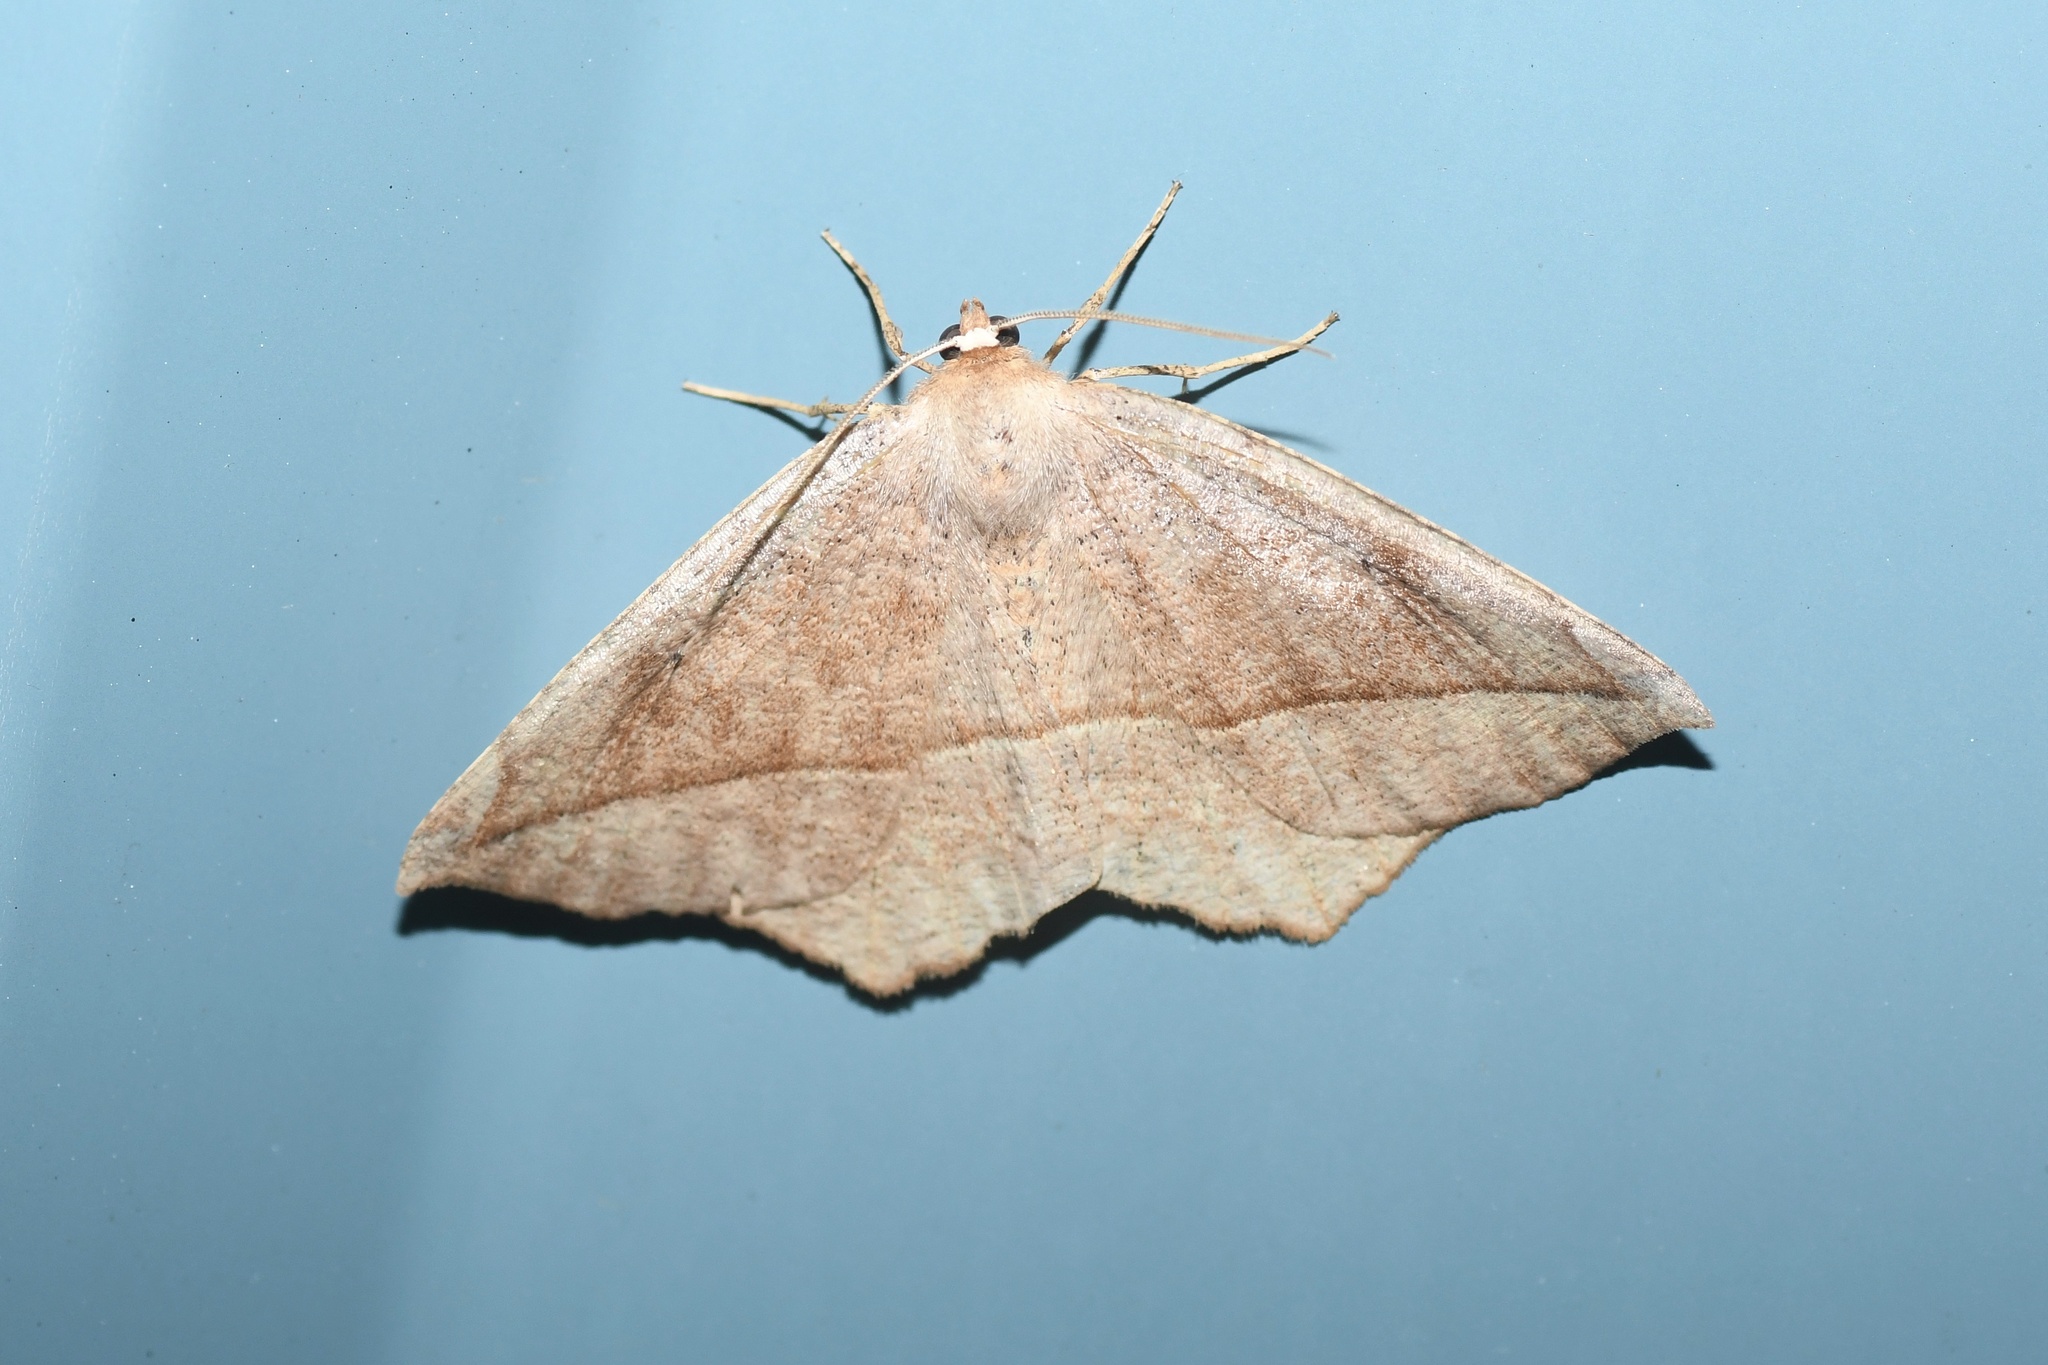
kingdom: Animalia
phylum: Arthropoda
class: Insecta
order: Lepidoptera
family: Geometridae
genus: Eutrapela
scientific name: Eutrapela clemataria
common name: Curved-toothed geometer
